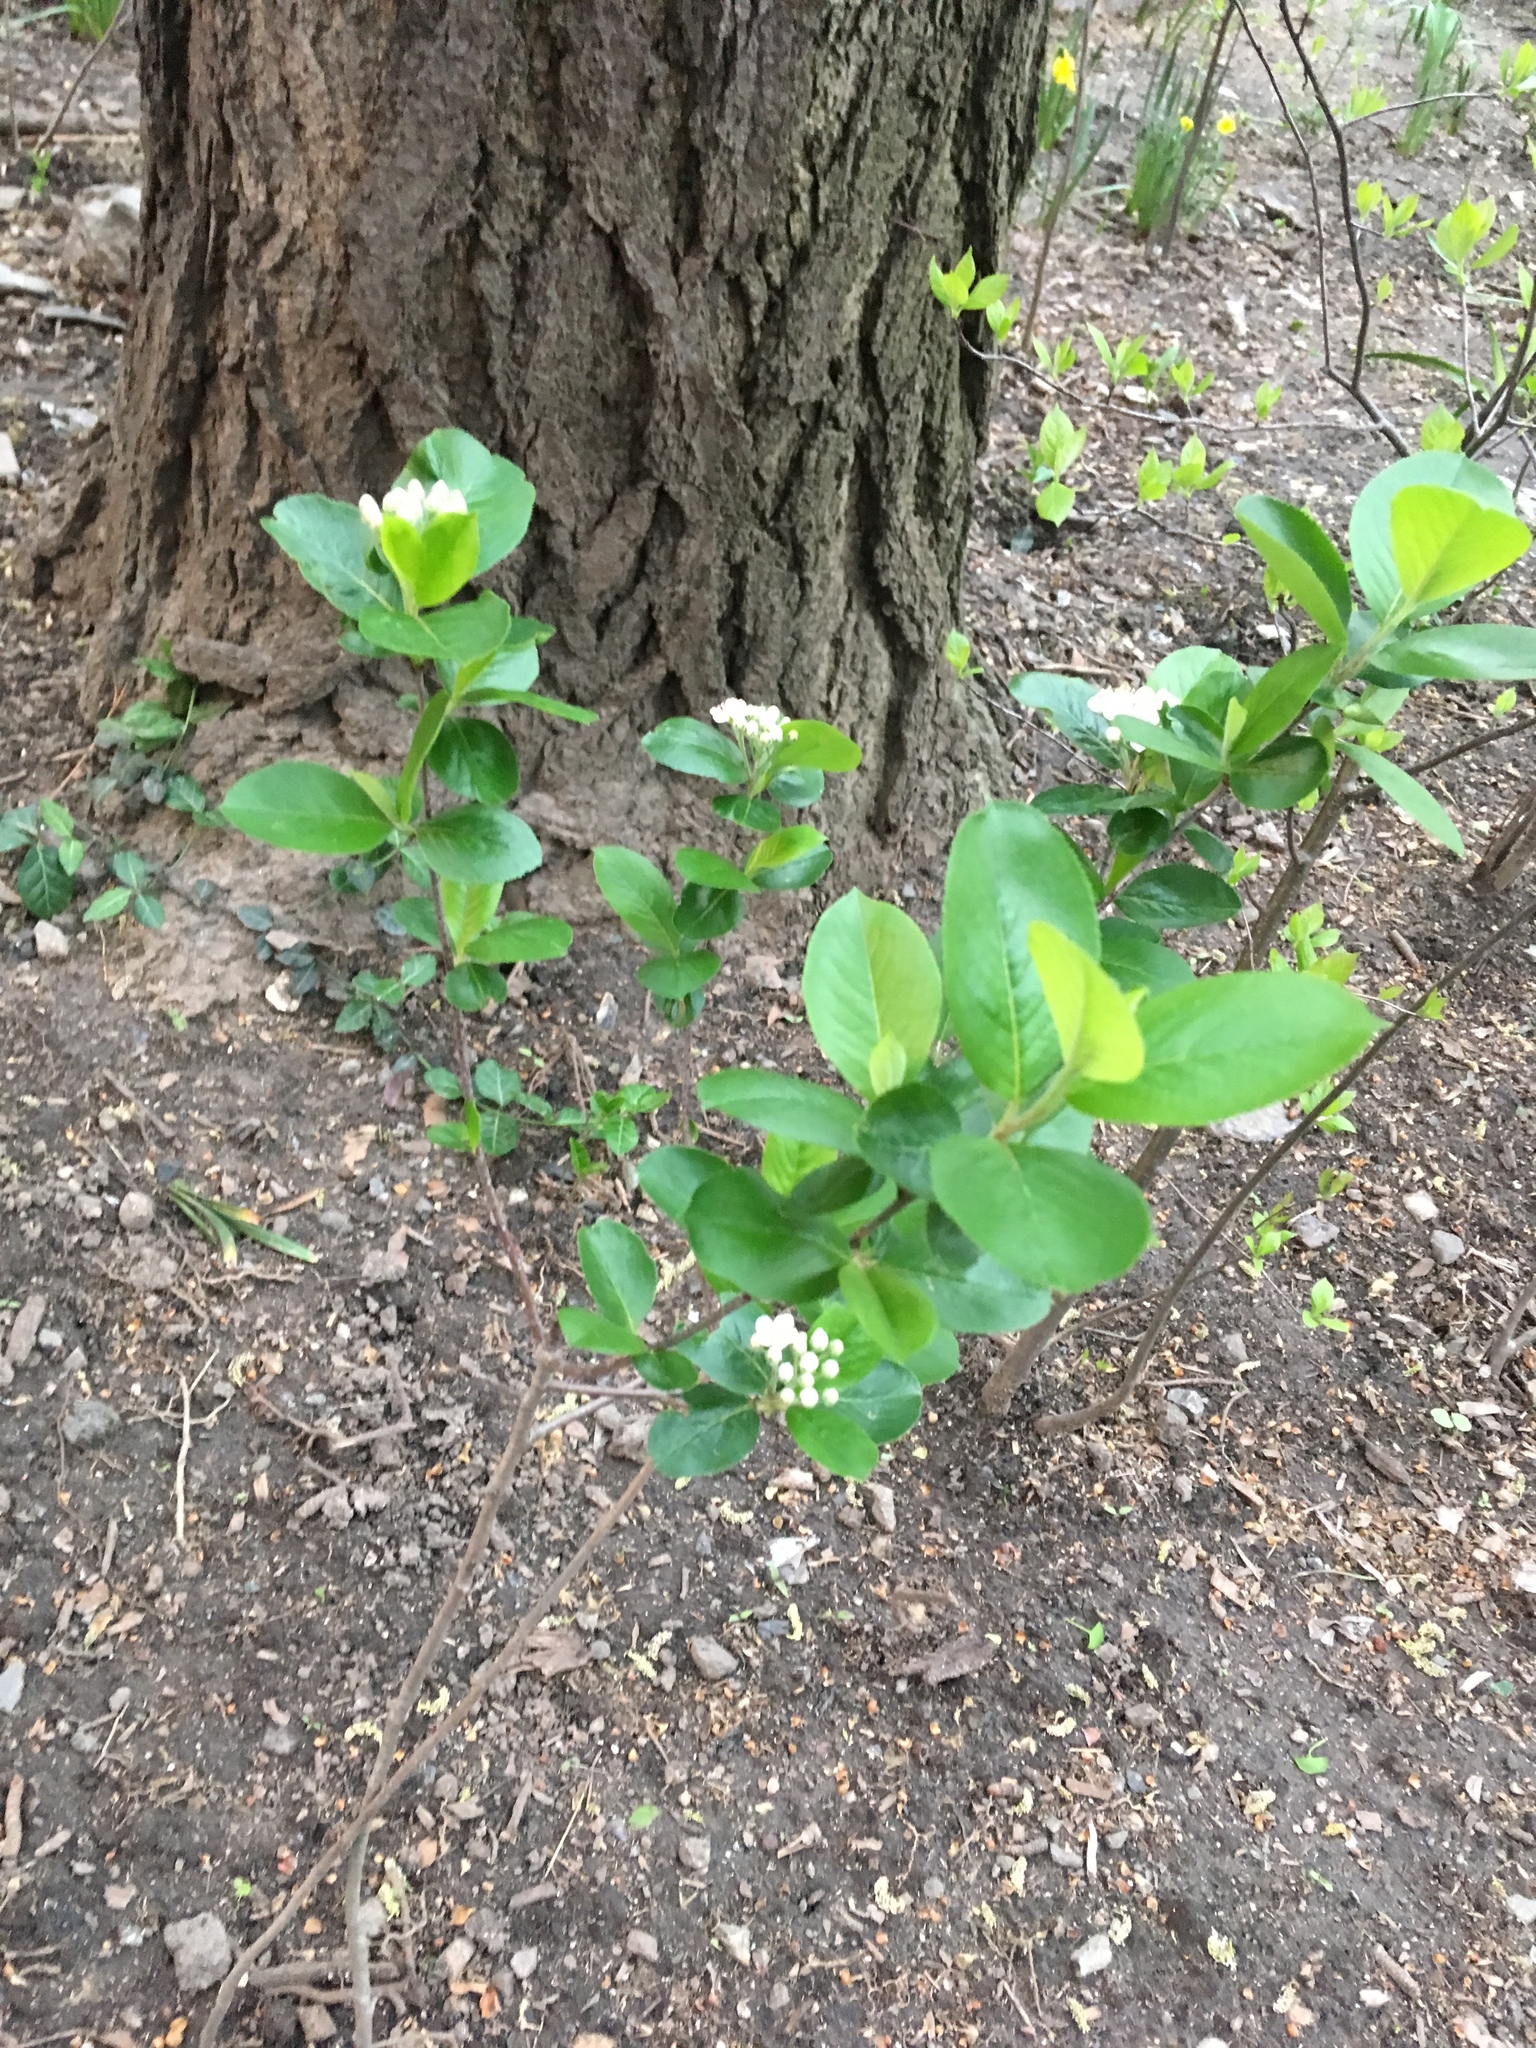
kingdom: Plantae
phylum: Tracheophyta
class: Magnoliopsida
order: Rosales
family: Rosaceae
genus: Aronia
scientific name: Aronia melanocarpa
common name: Black chokeberry
